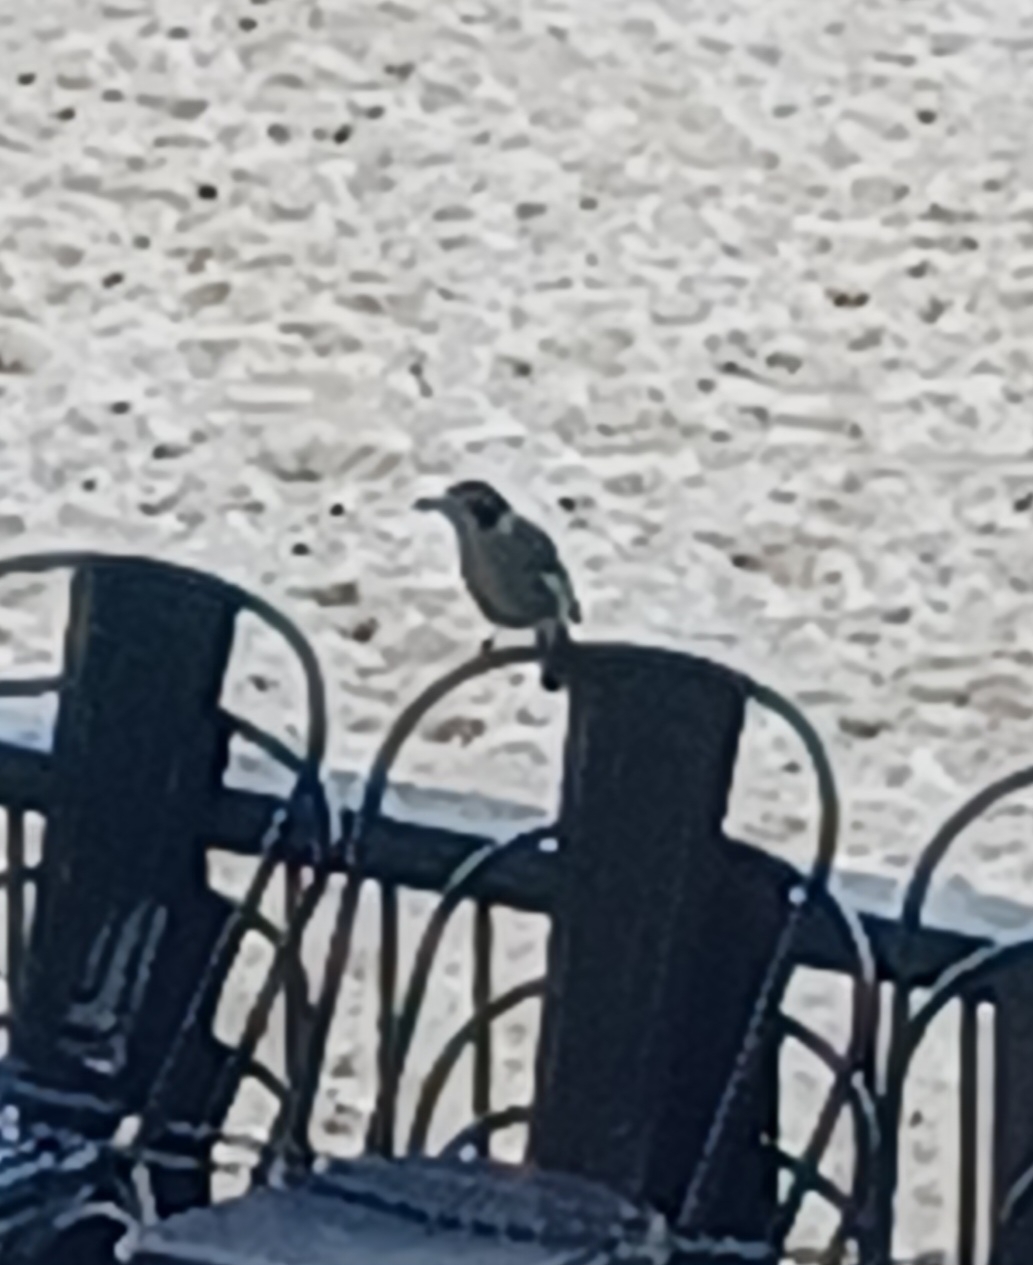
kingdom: Animalia
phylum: Chordata
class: Aves
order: Passeriformes
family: Cracticidae
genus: Cracticus
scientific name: Cracticus torquatus
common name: Grey butcherbird
